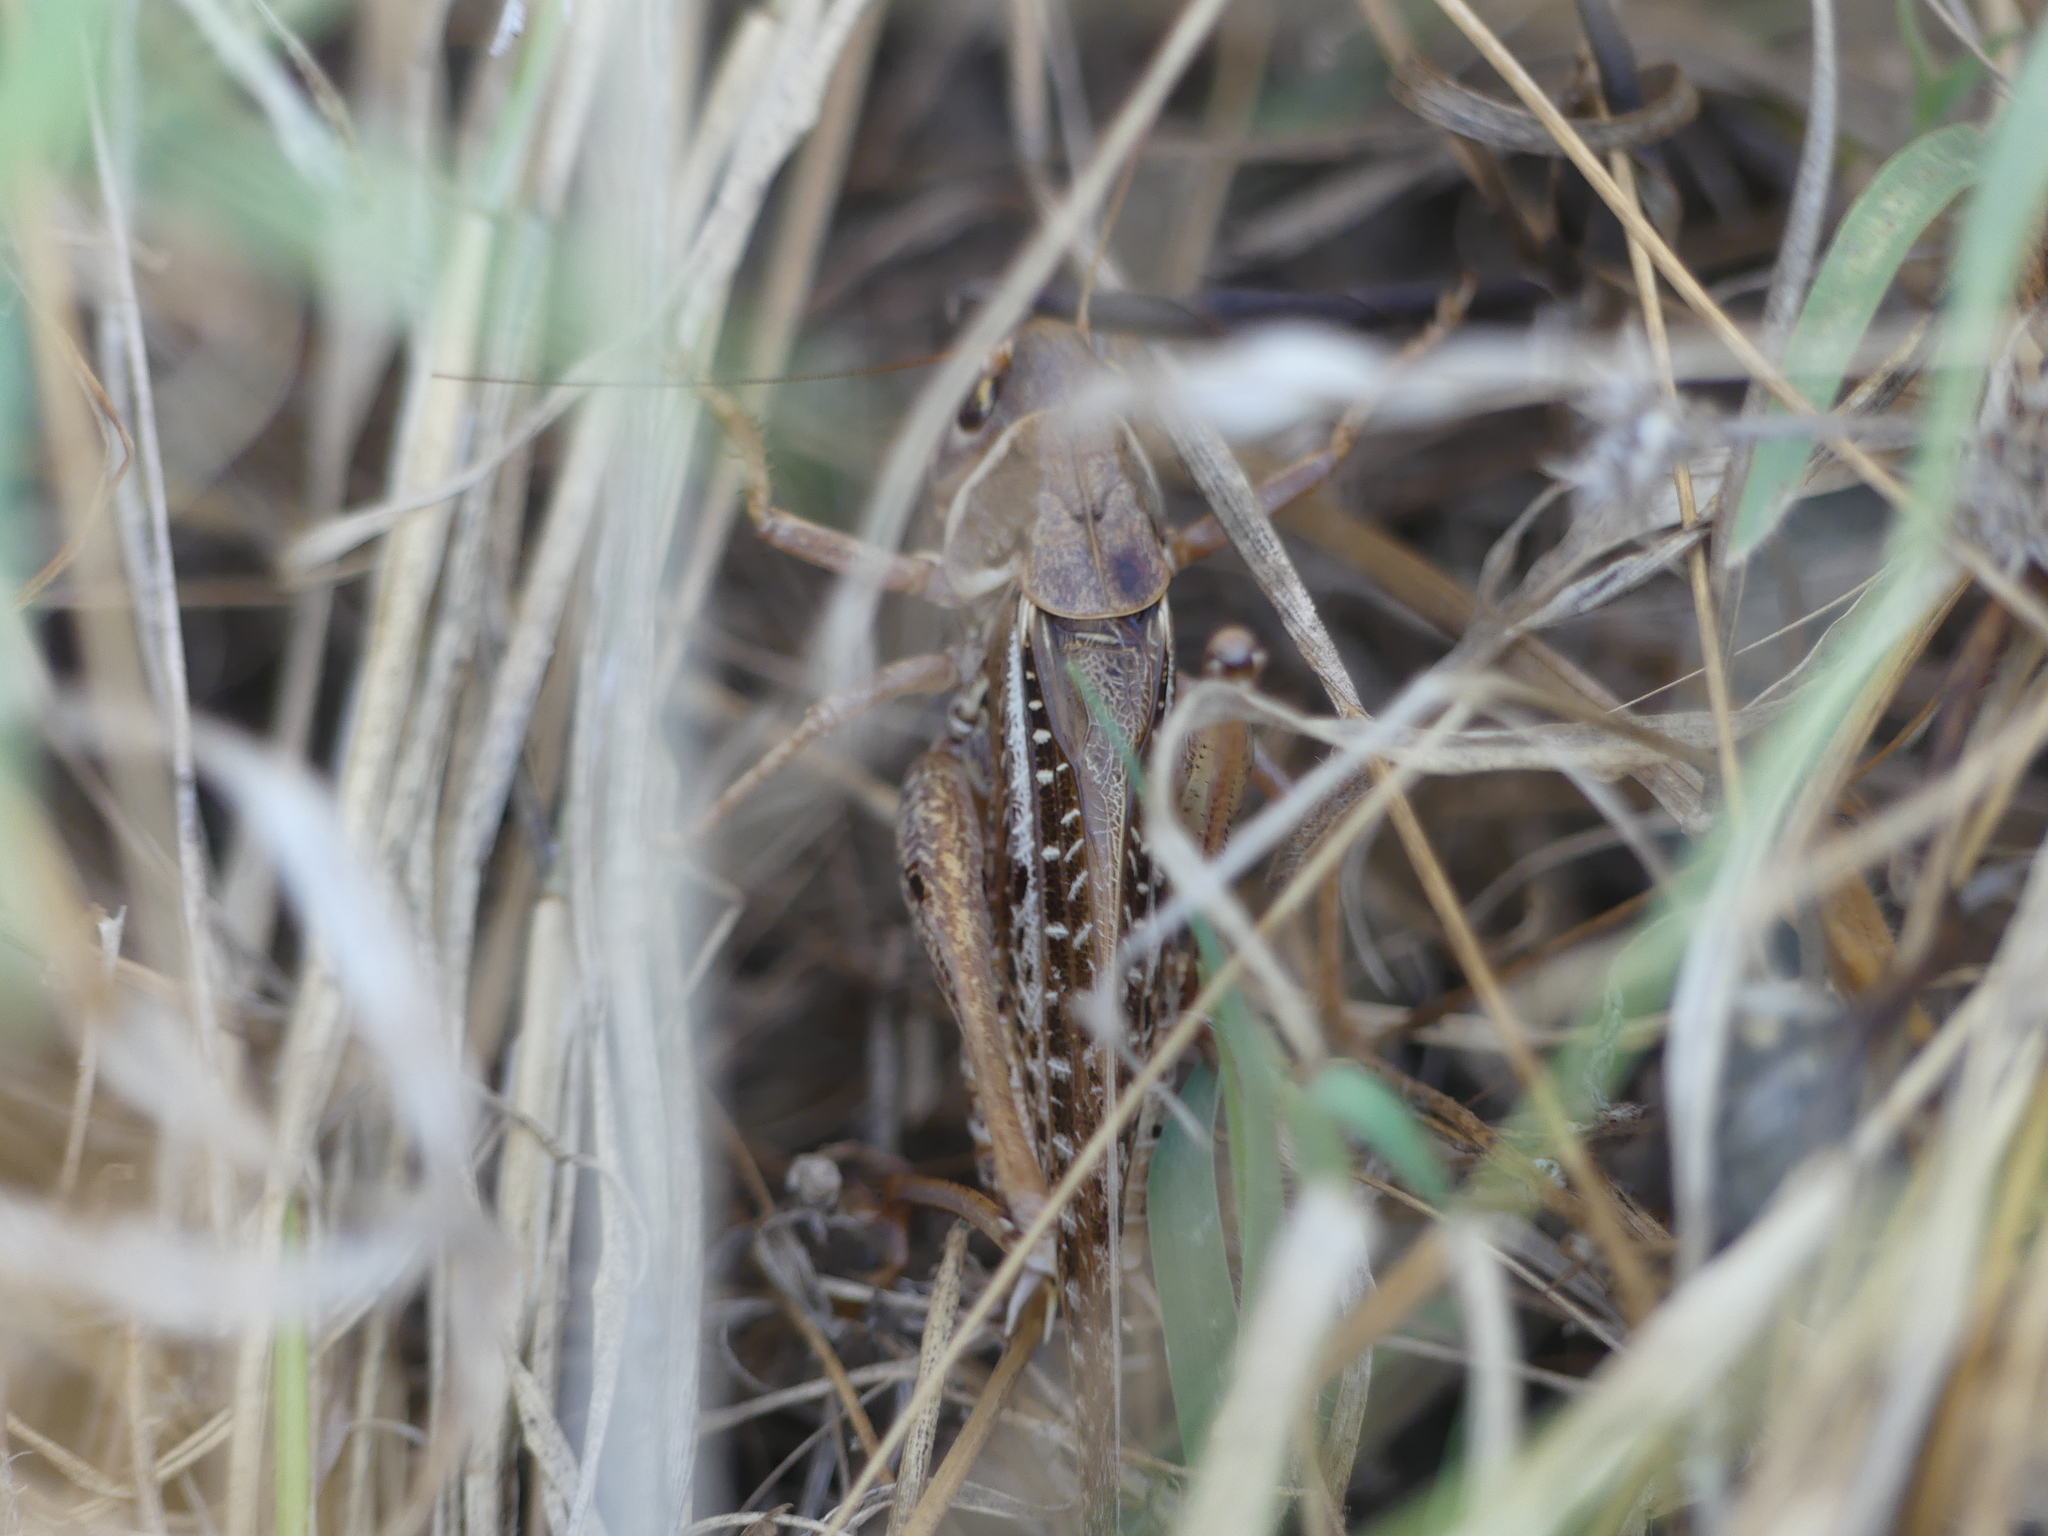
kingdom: Animalia
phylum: Arthropoda
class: Insecta
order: Orthoptera
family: Tettigoniidae
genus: Decticus
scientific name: Decticus albifrons
